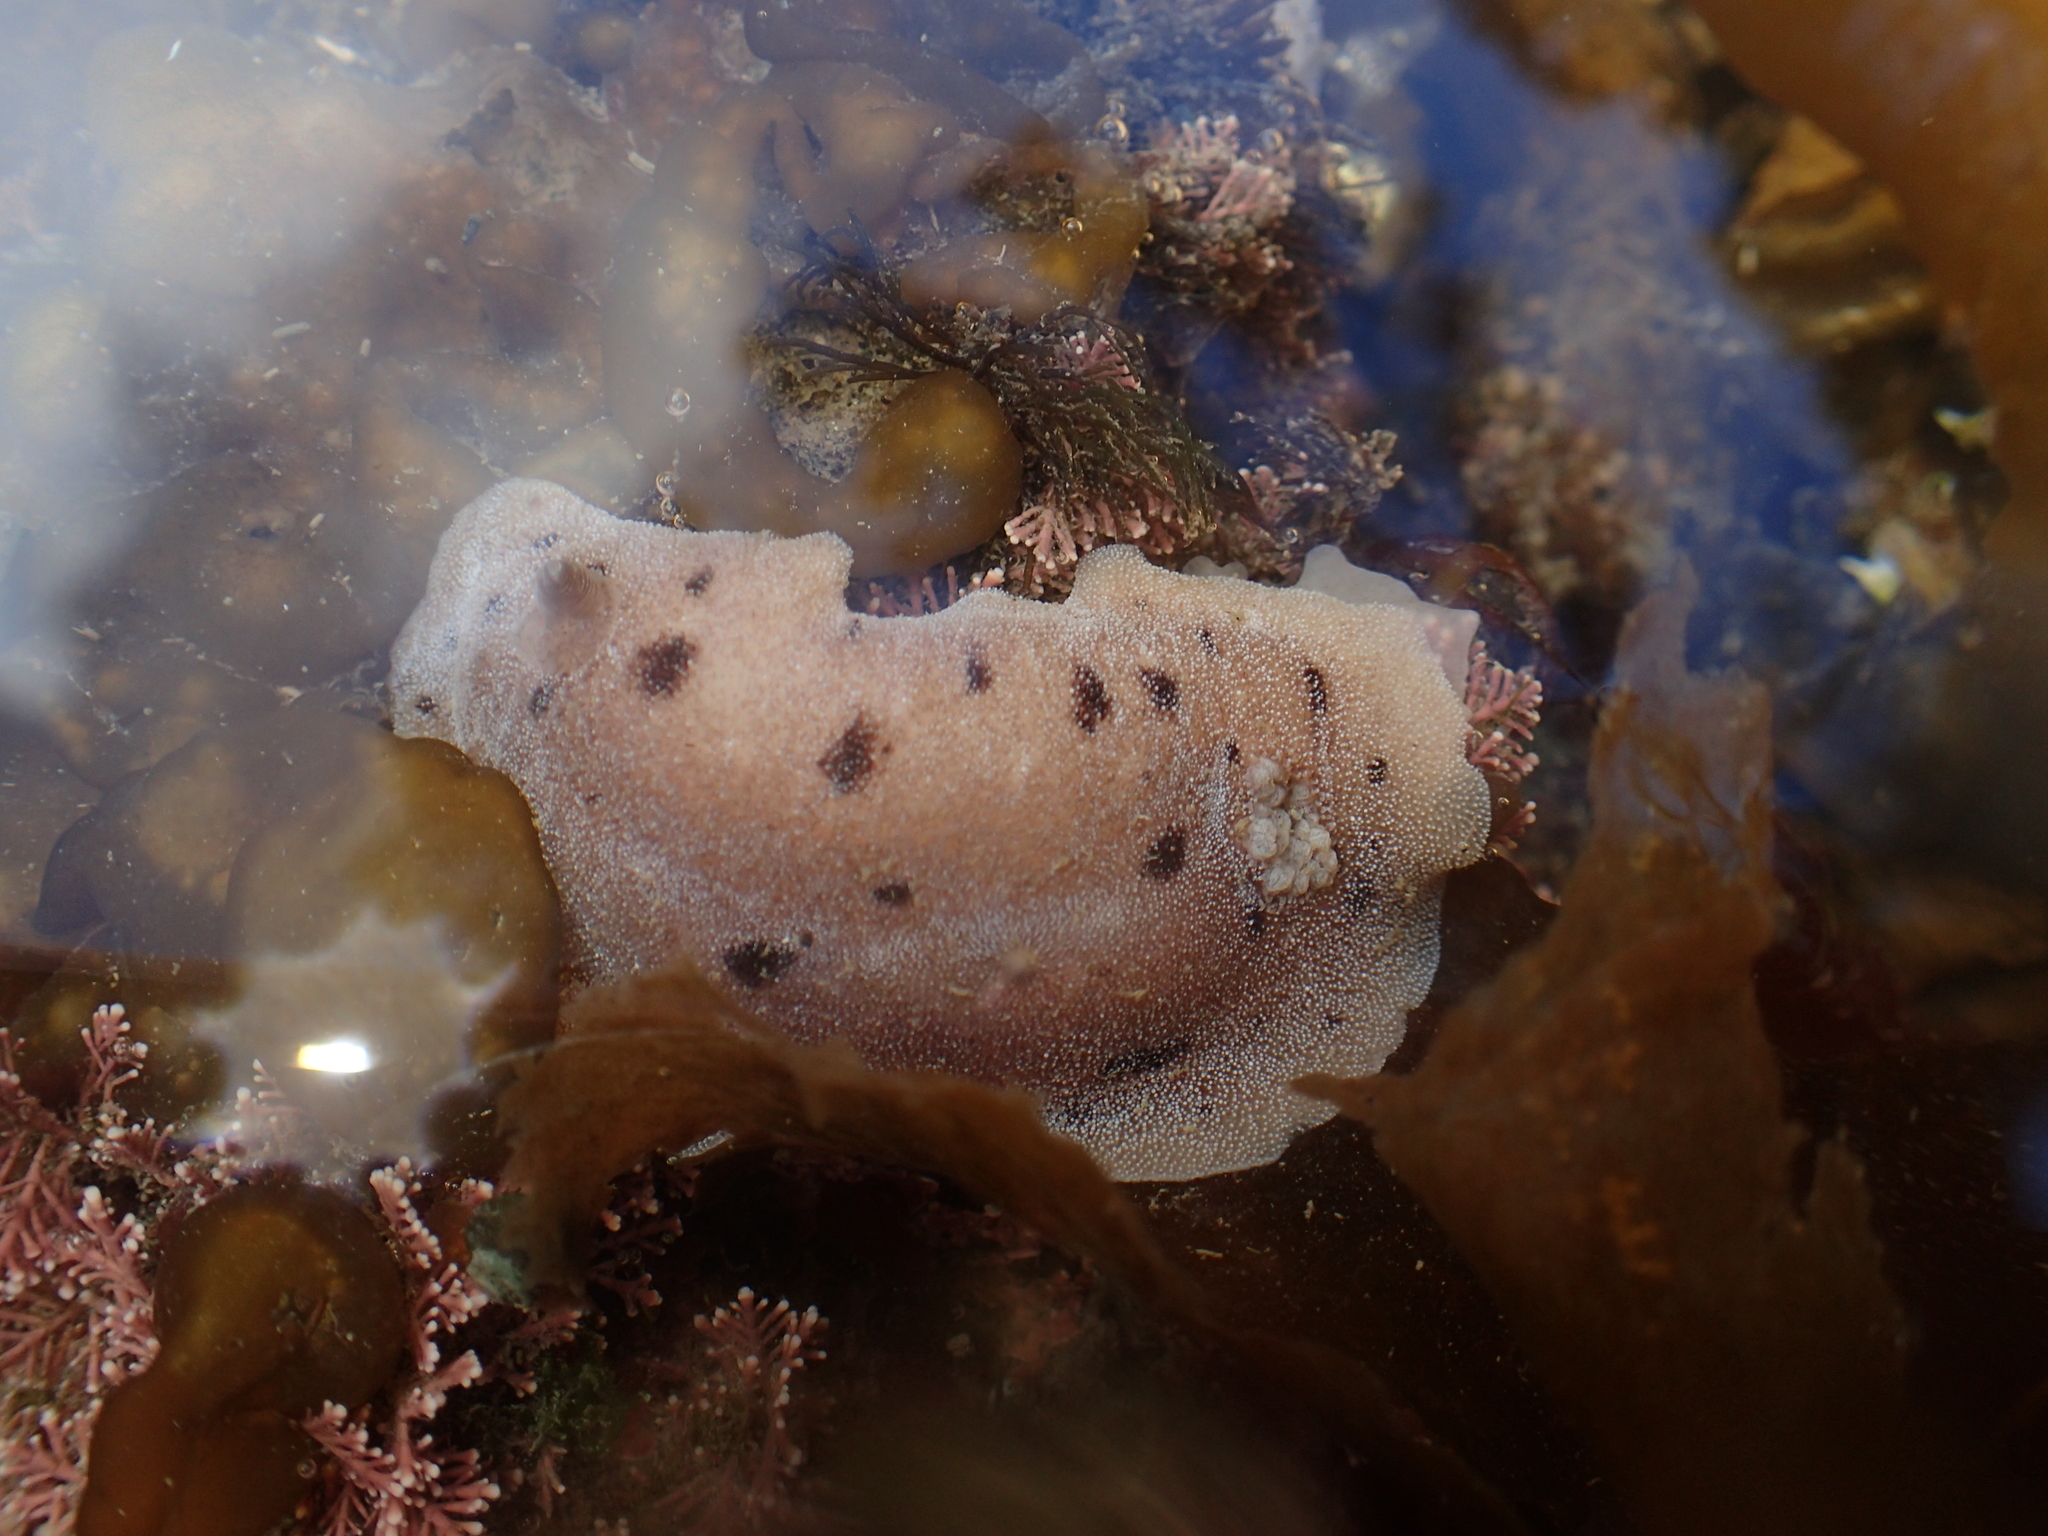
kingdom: Animalia
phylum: Mollusca
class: Gastropoda
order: Nudibranchia
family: Discodorididae
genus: Alloiodoris
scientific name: Alloiodoris lanuginata
